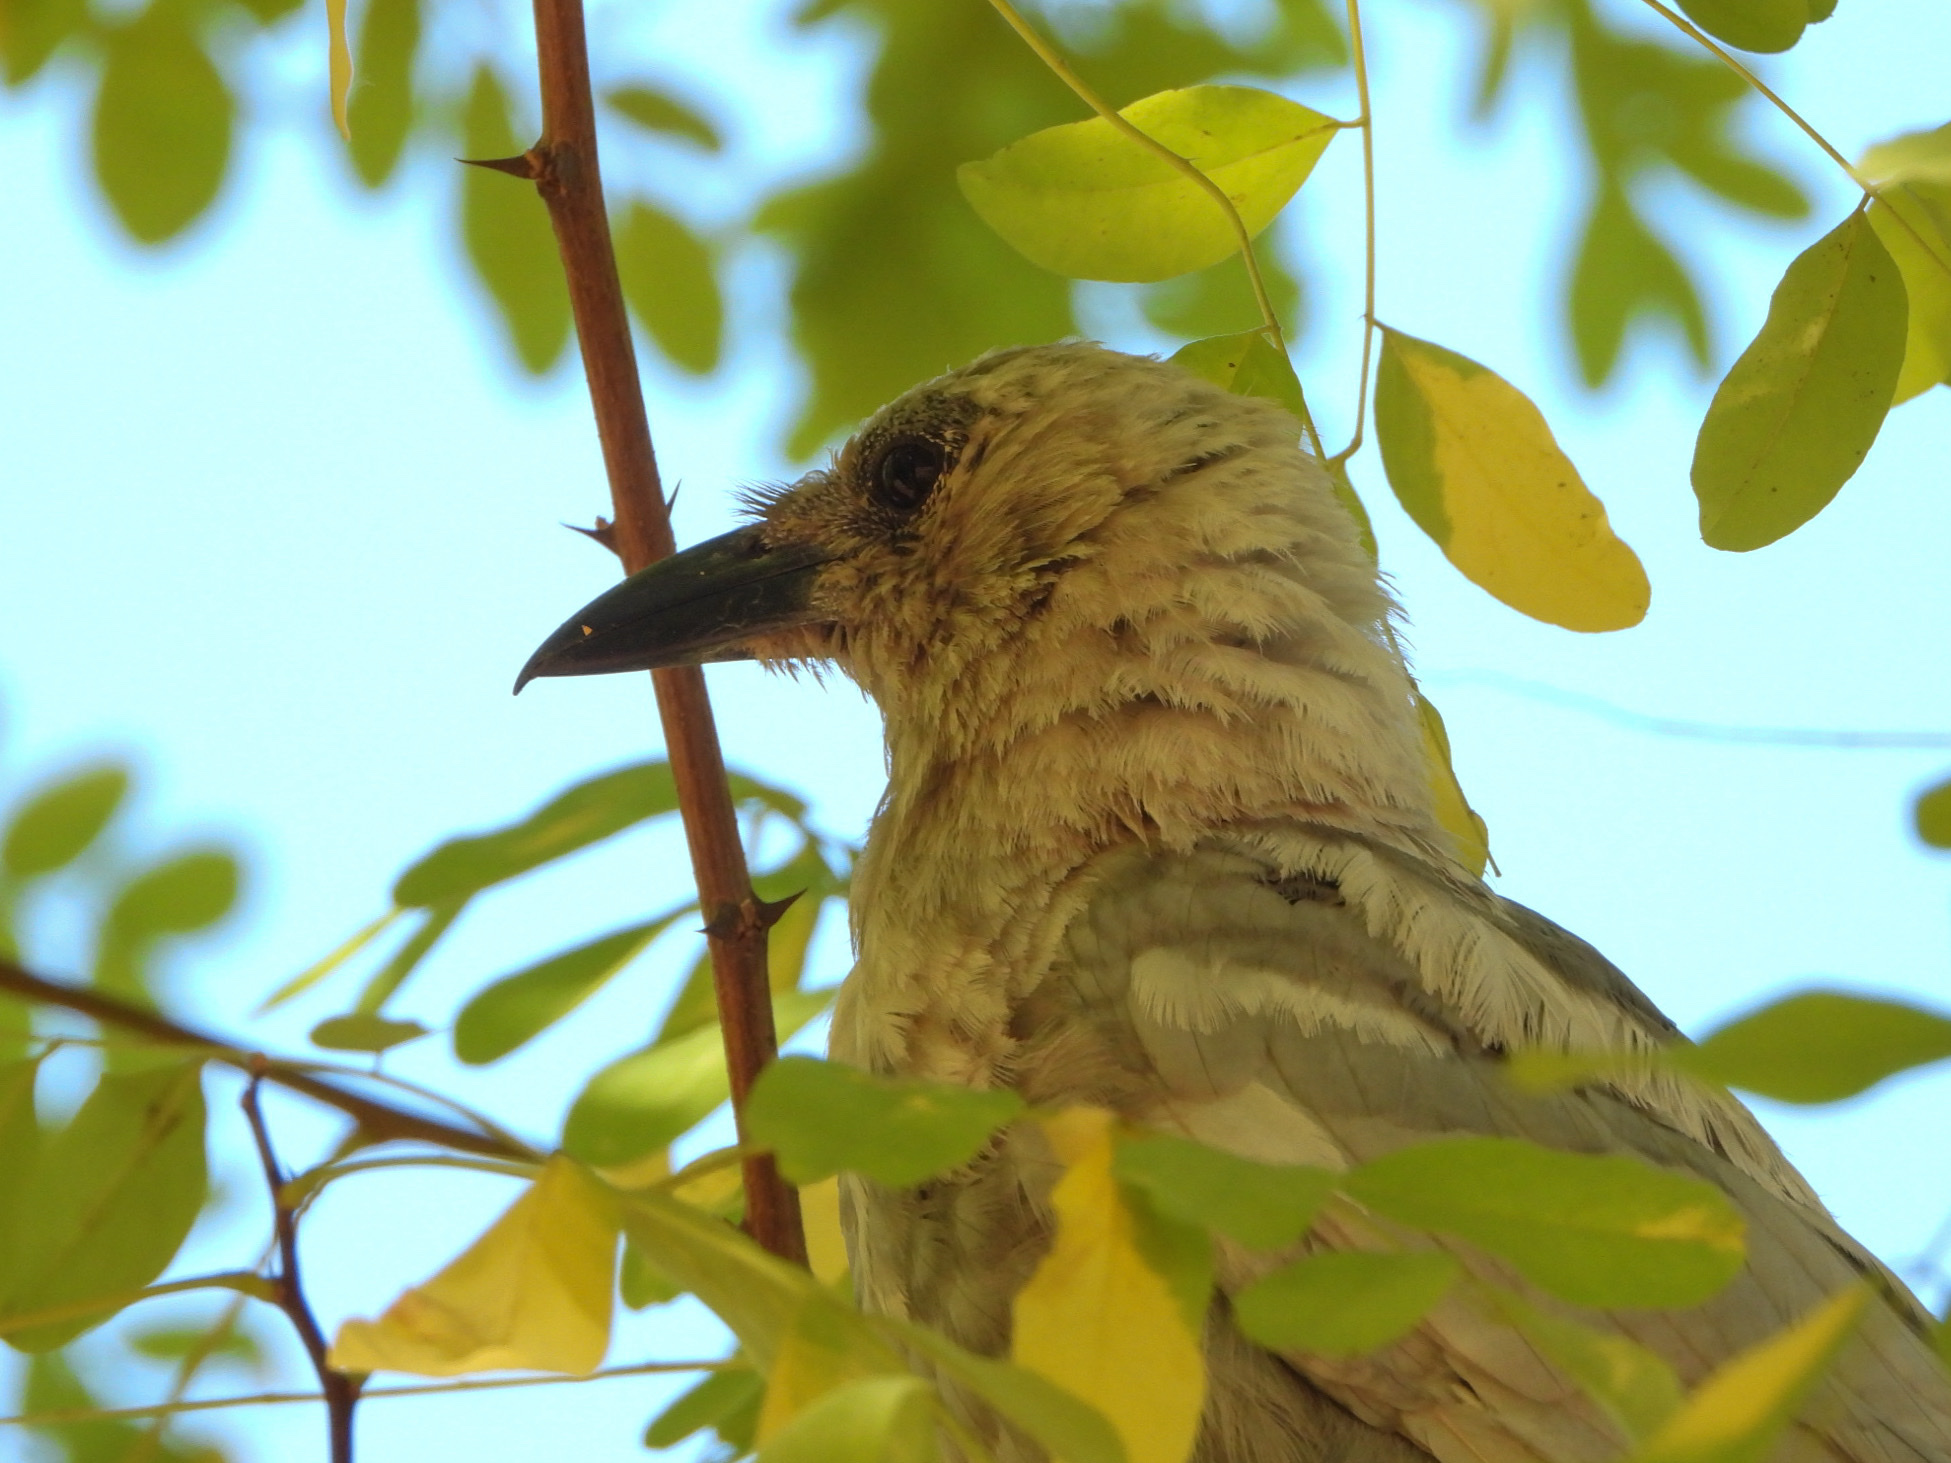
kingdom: Animalia
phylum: Chordata
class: Aves
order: Passeriformes
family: Corvidae
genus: Corvus
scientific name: Corvus brachyrhynchos
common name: American crow
